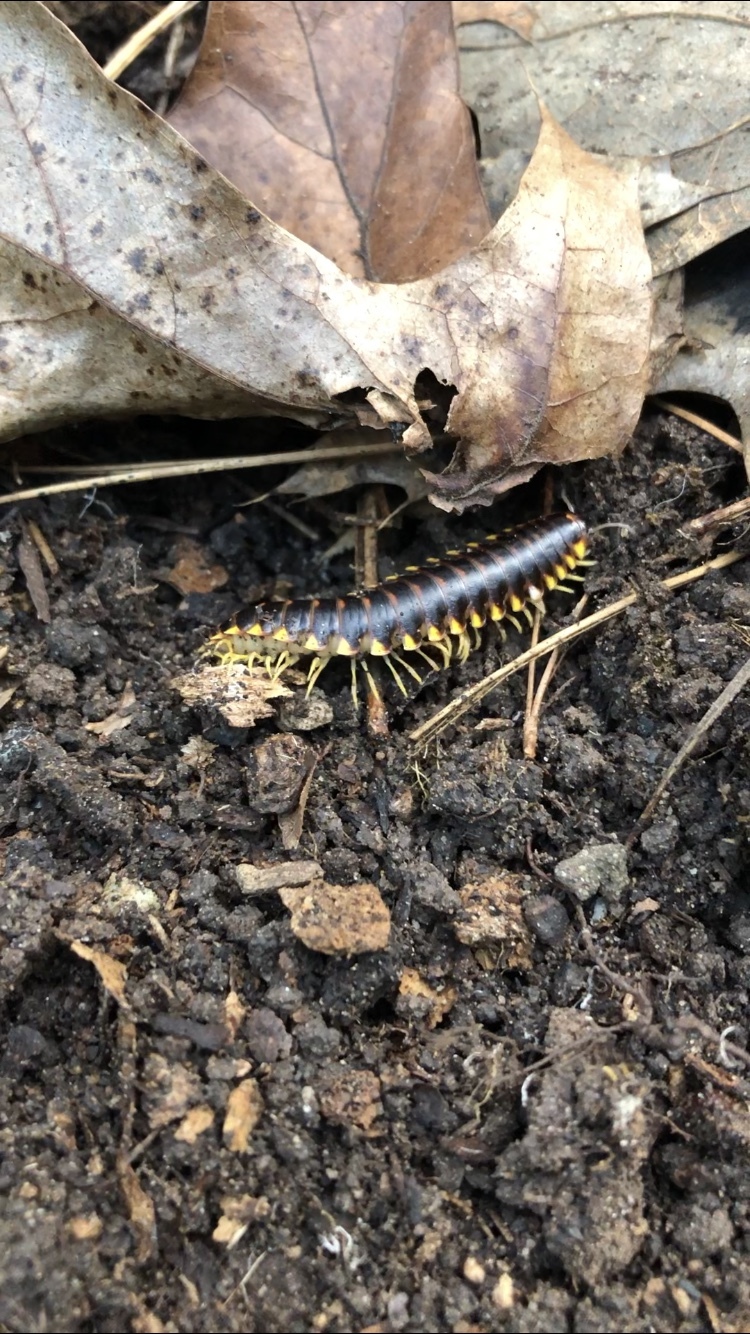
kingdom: Animalia
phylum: Arthropoda
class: Diplopoda
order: Polydesmida
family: Xystodesmidae
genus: Apheloria
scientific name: Apheloria tigana
